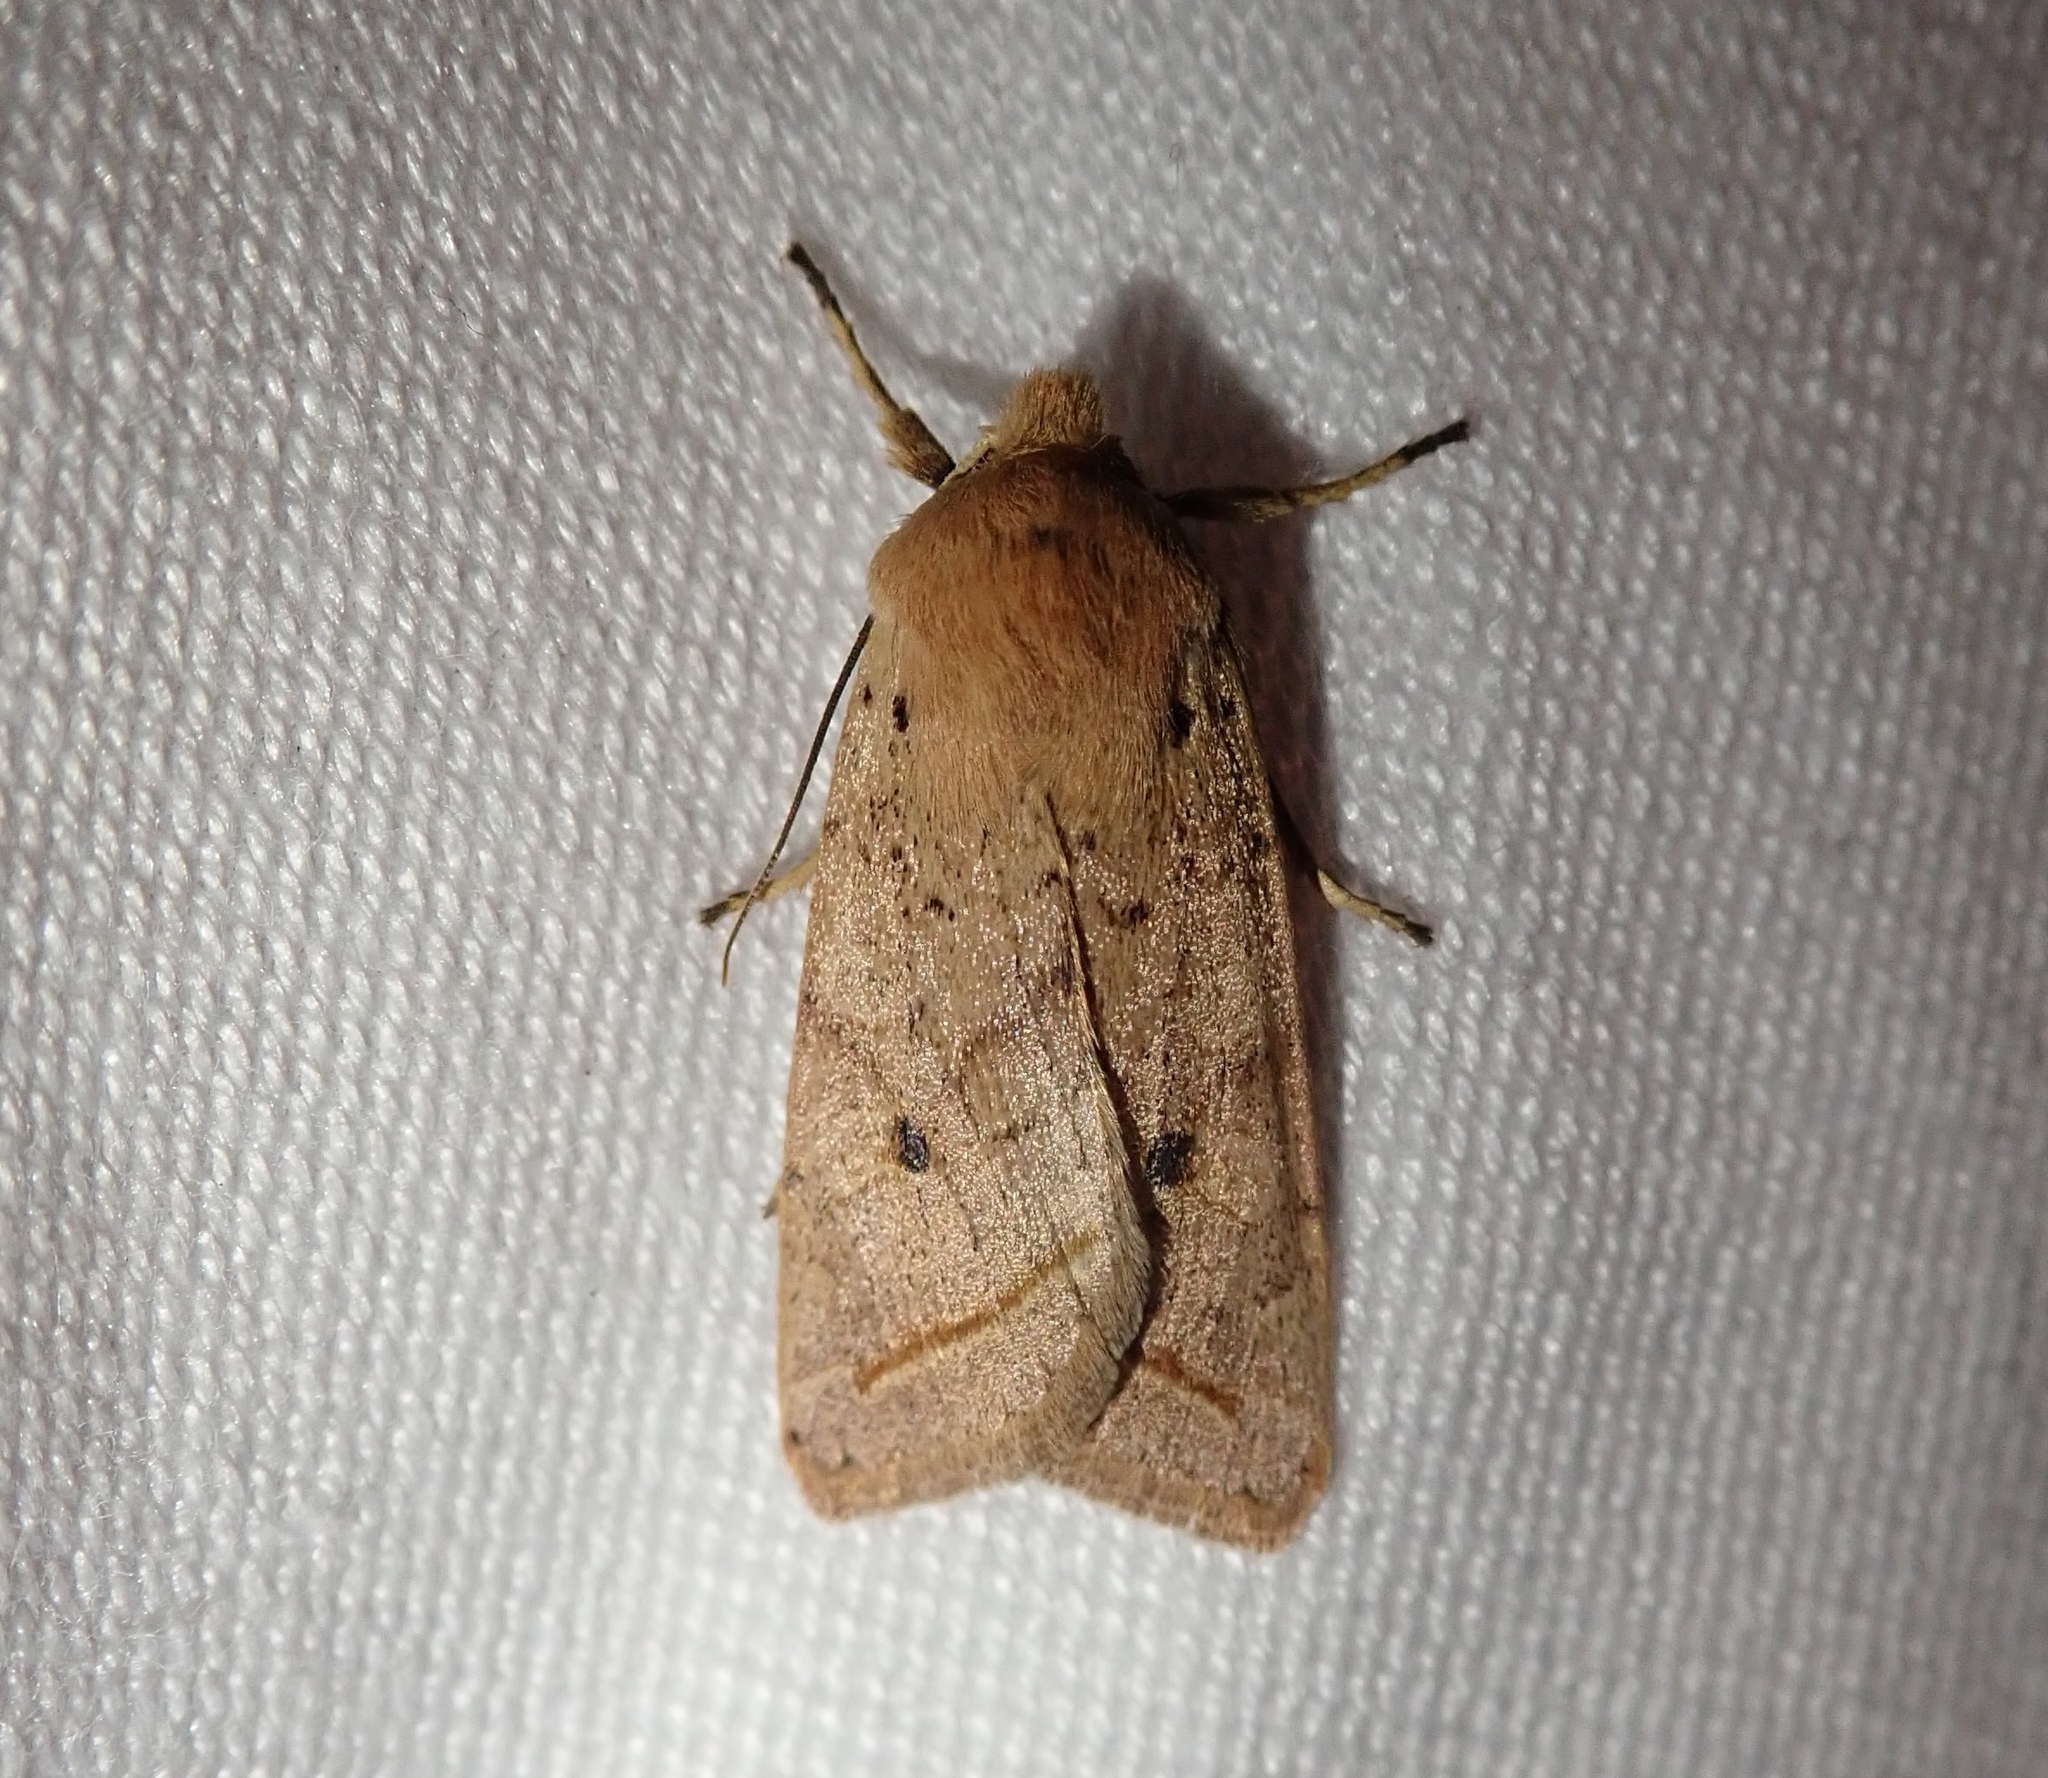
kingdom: Animalia
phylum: Arthropoda
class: Insecta
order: Lepidoptera
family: Noctuidae
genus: Agrochola
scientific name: Agrochola macilenta
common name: Yellow-line quaker
